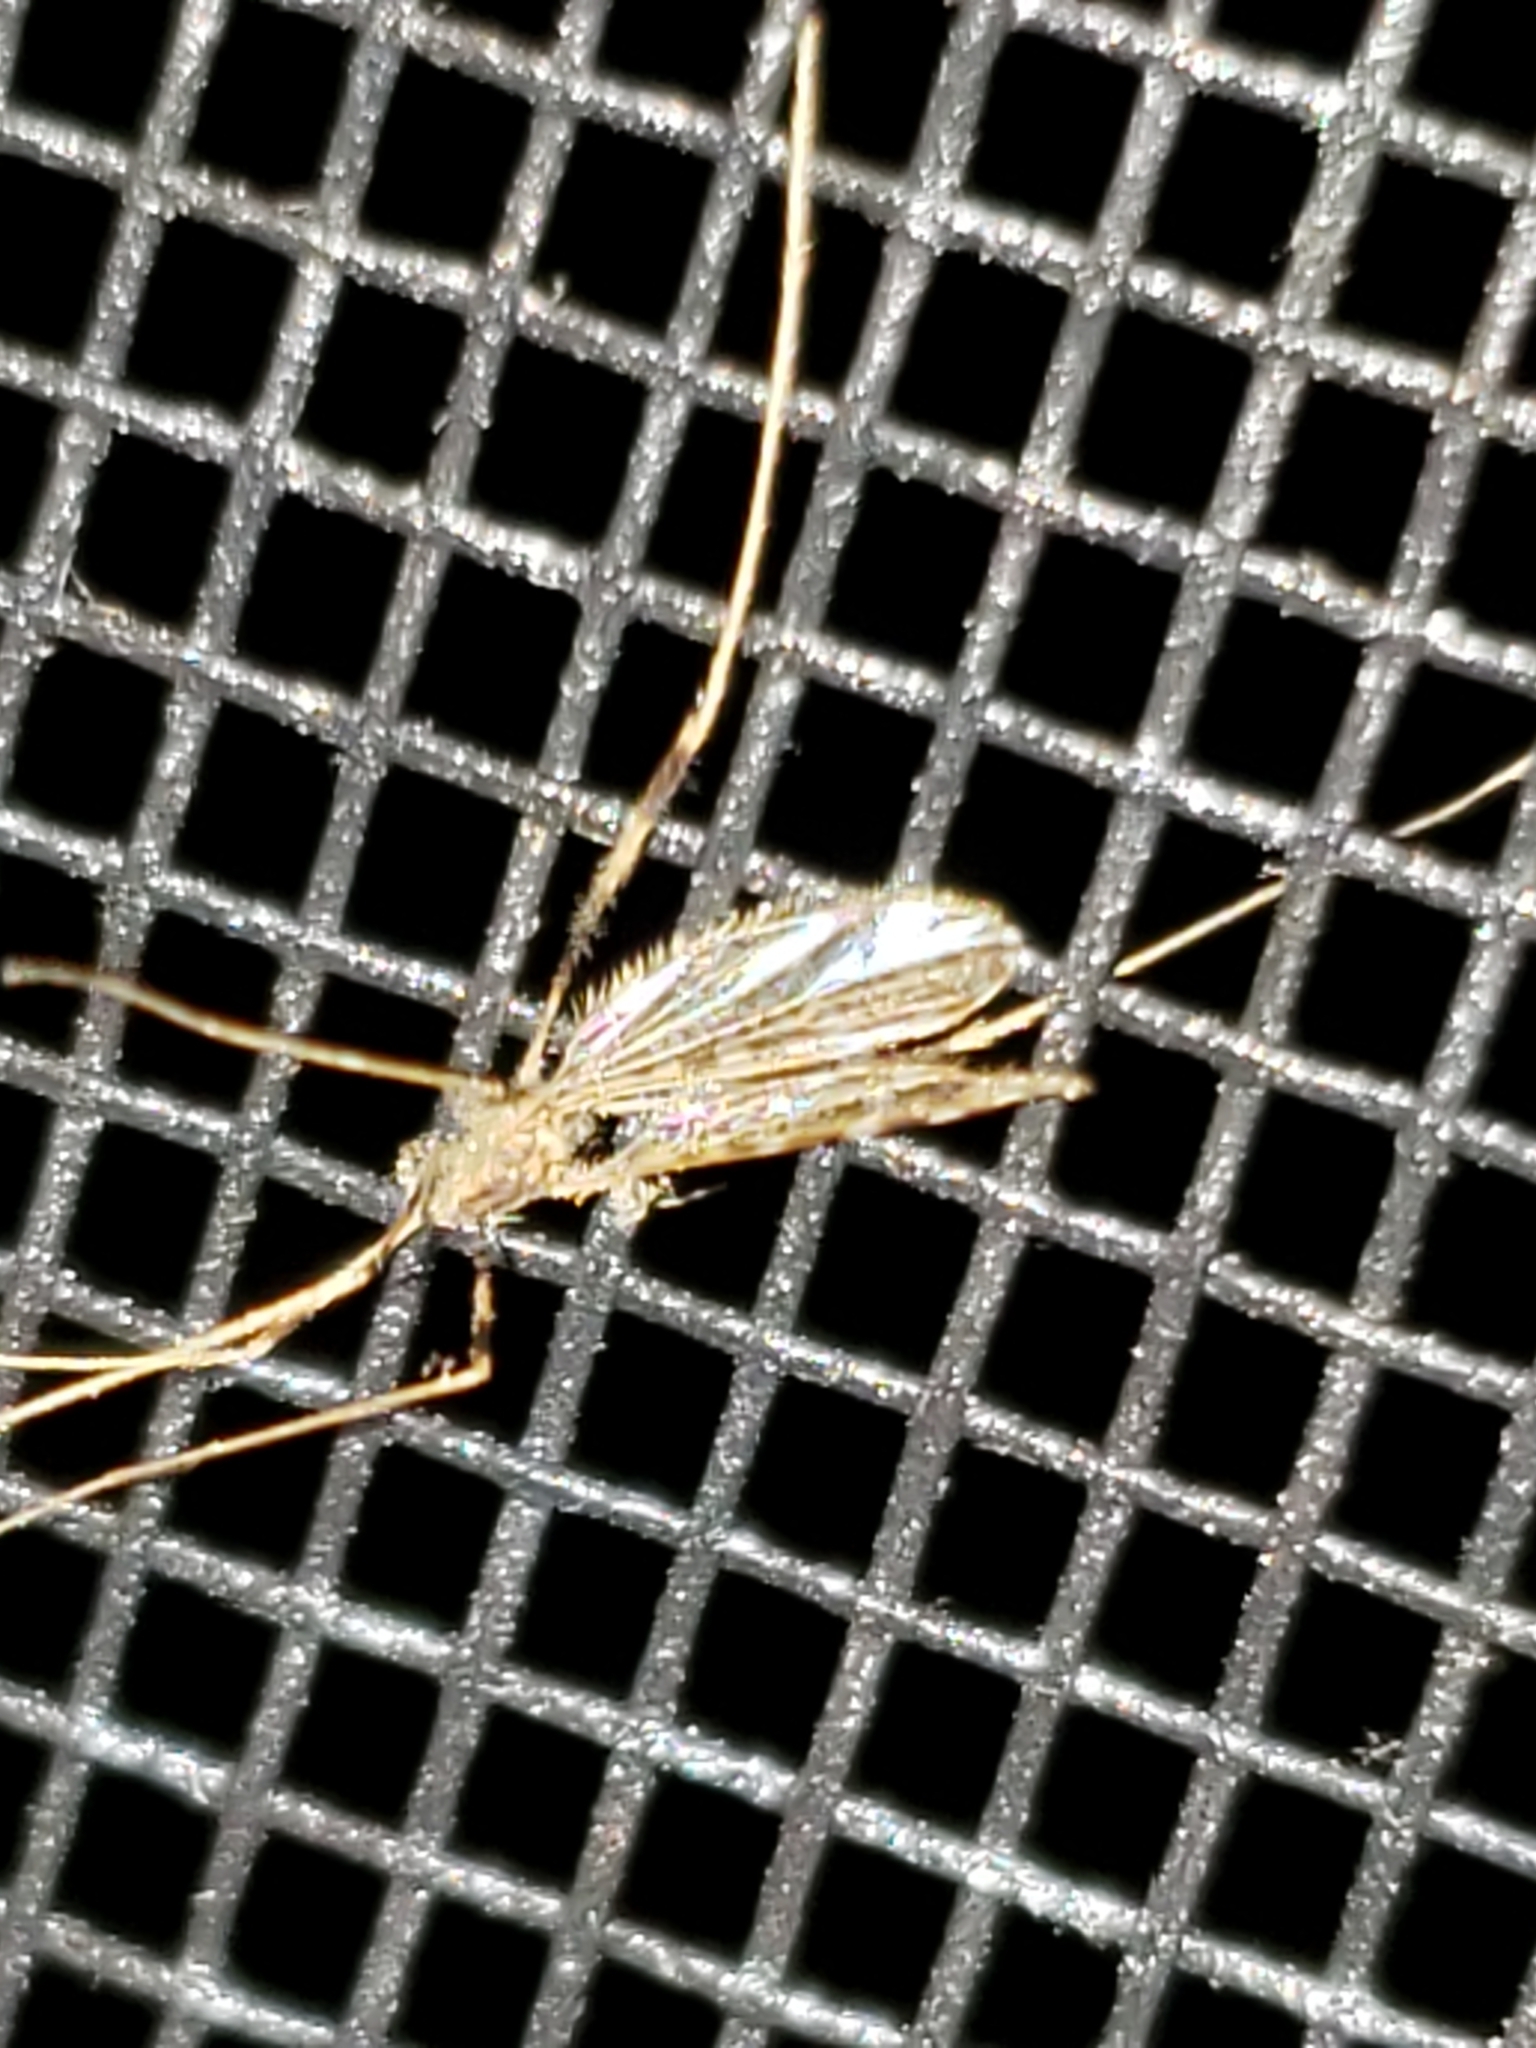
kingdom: Animalia
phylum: Arthropoda
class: Insecta
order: Diptera
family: Limoniidae
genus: Erioptera
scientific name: Erioptera caliptera
